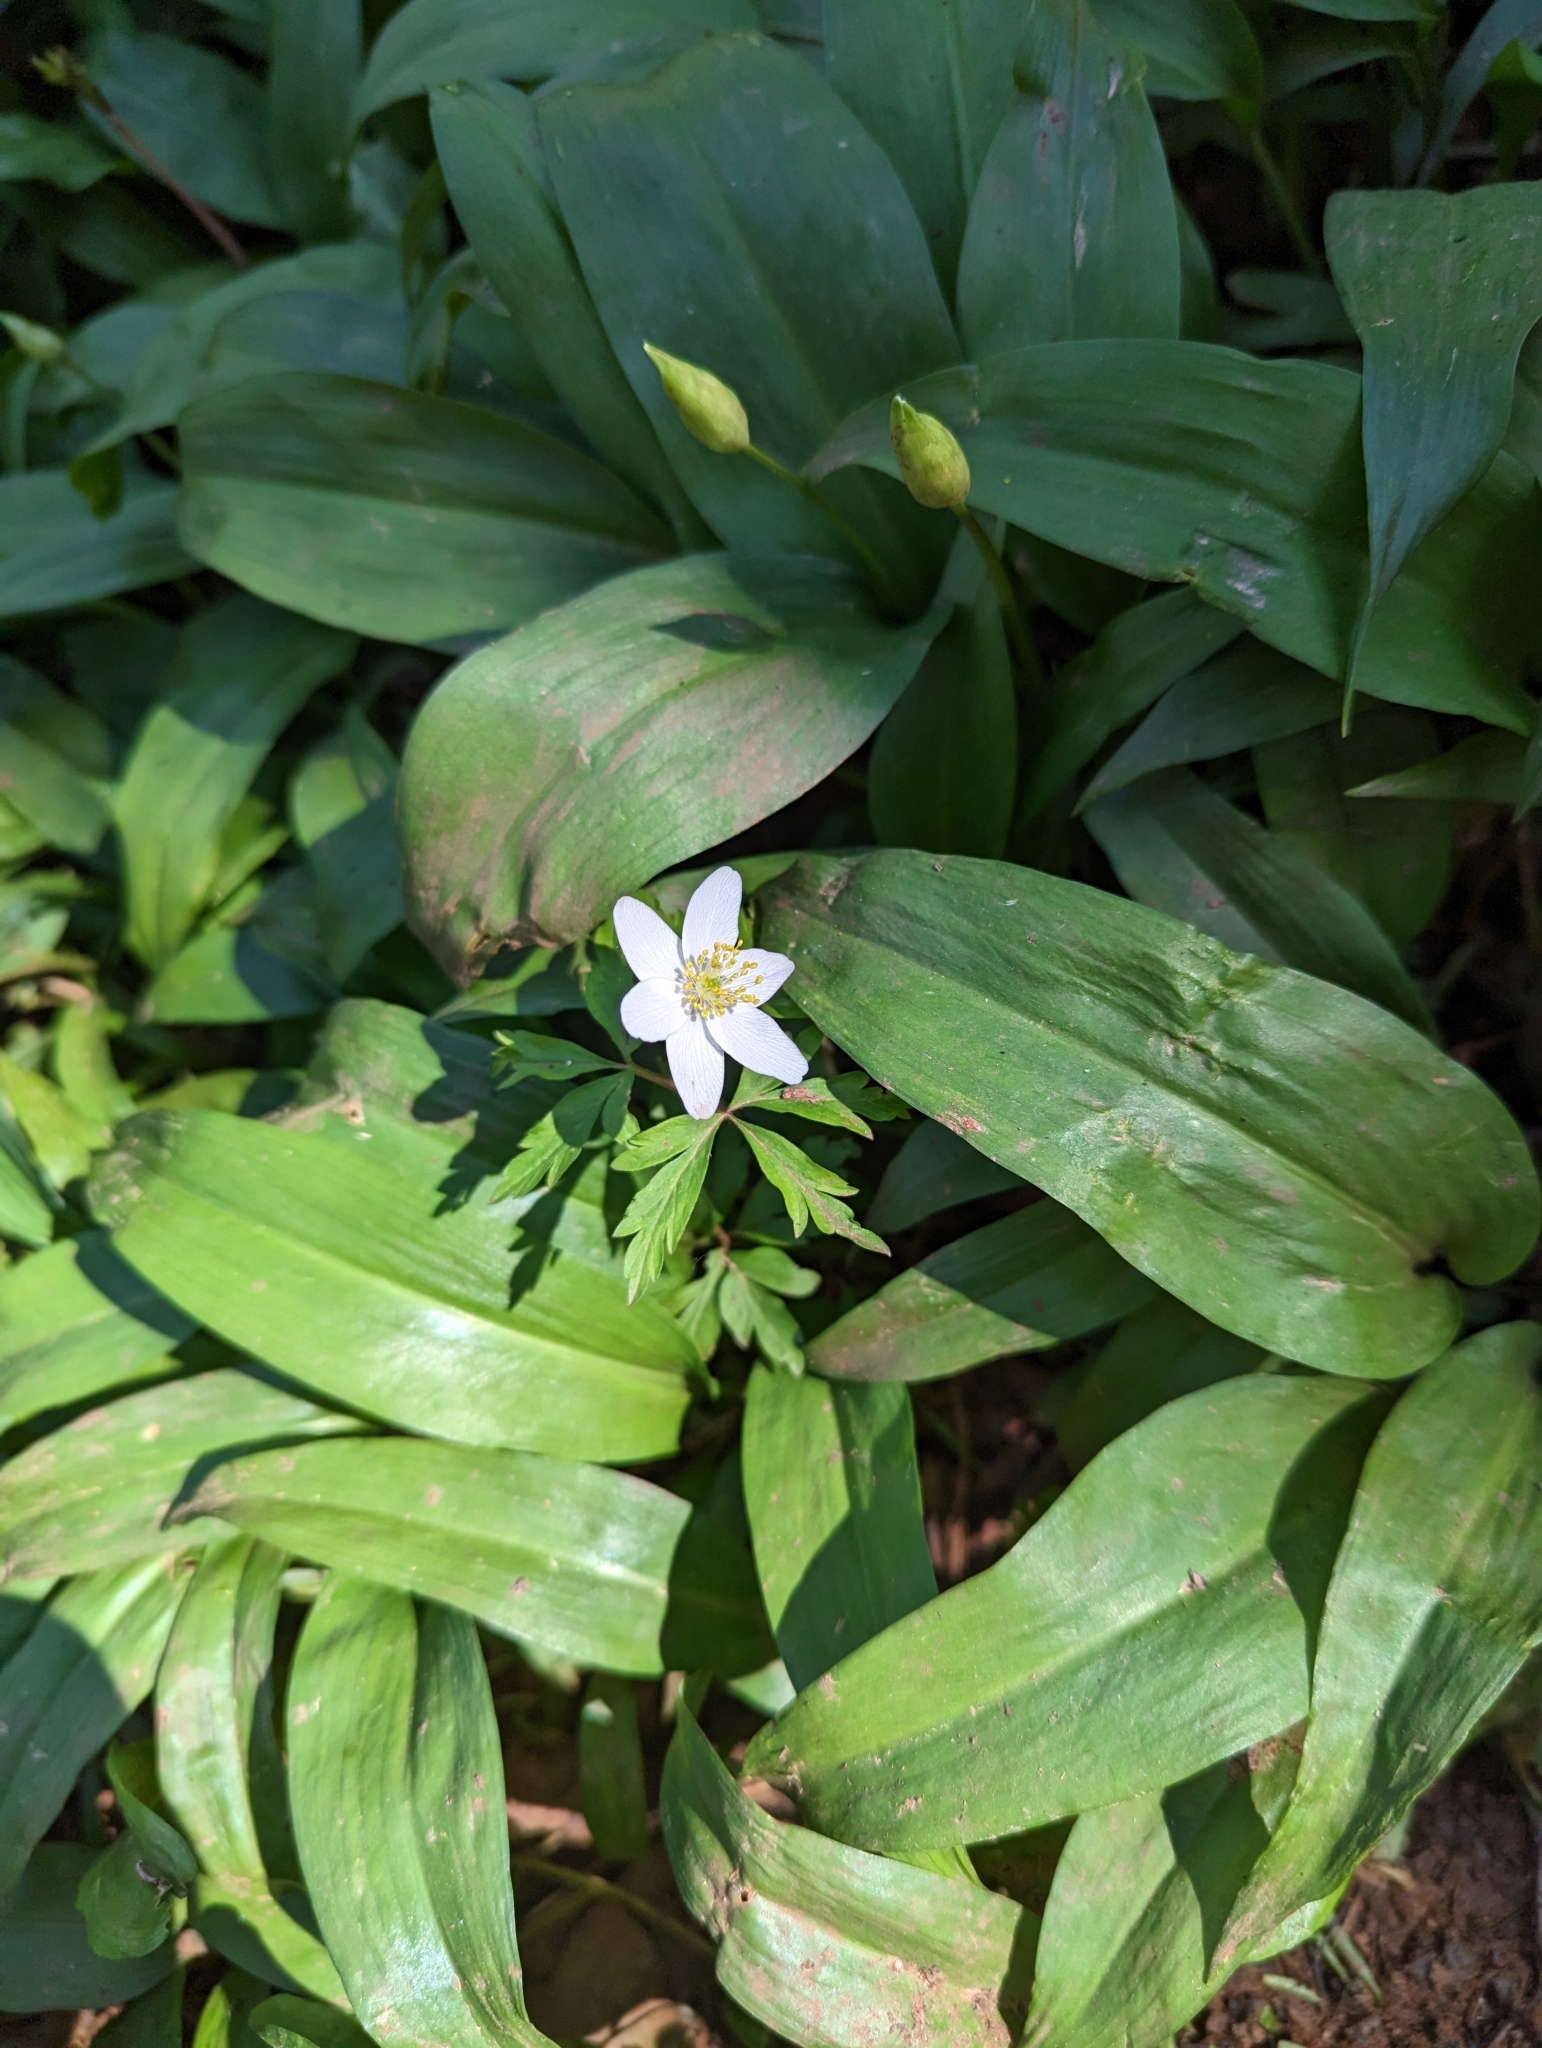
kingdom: Plantae
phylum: Tracheophyta
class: Magnoliopsida
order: Ranunculales
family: Ranunculaceae
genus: Anemone
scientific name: Anemone nemorosa
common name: Wood anemone
